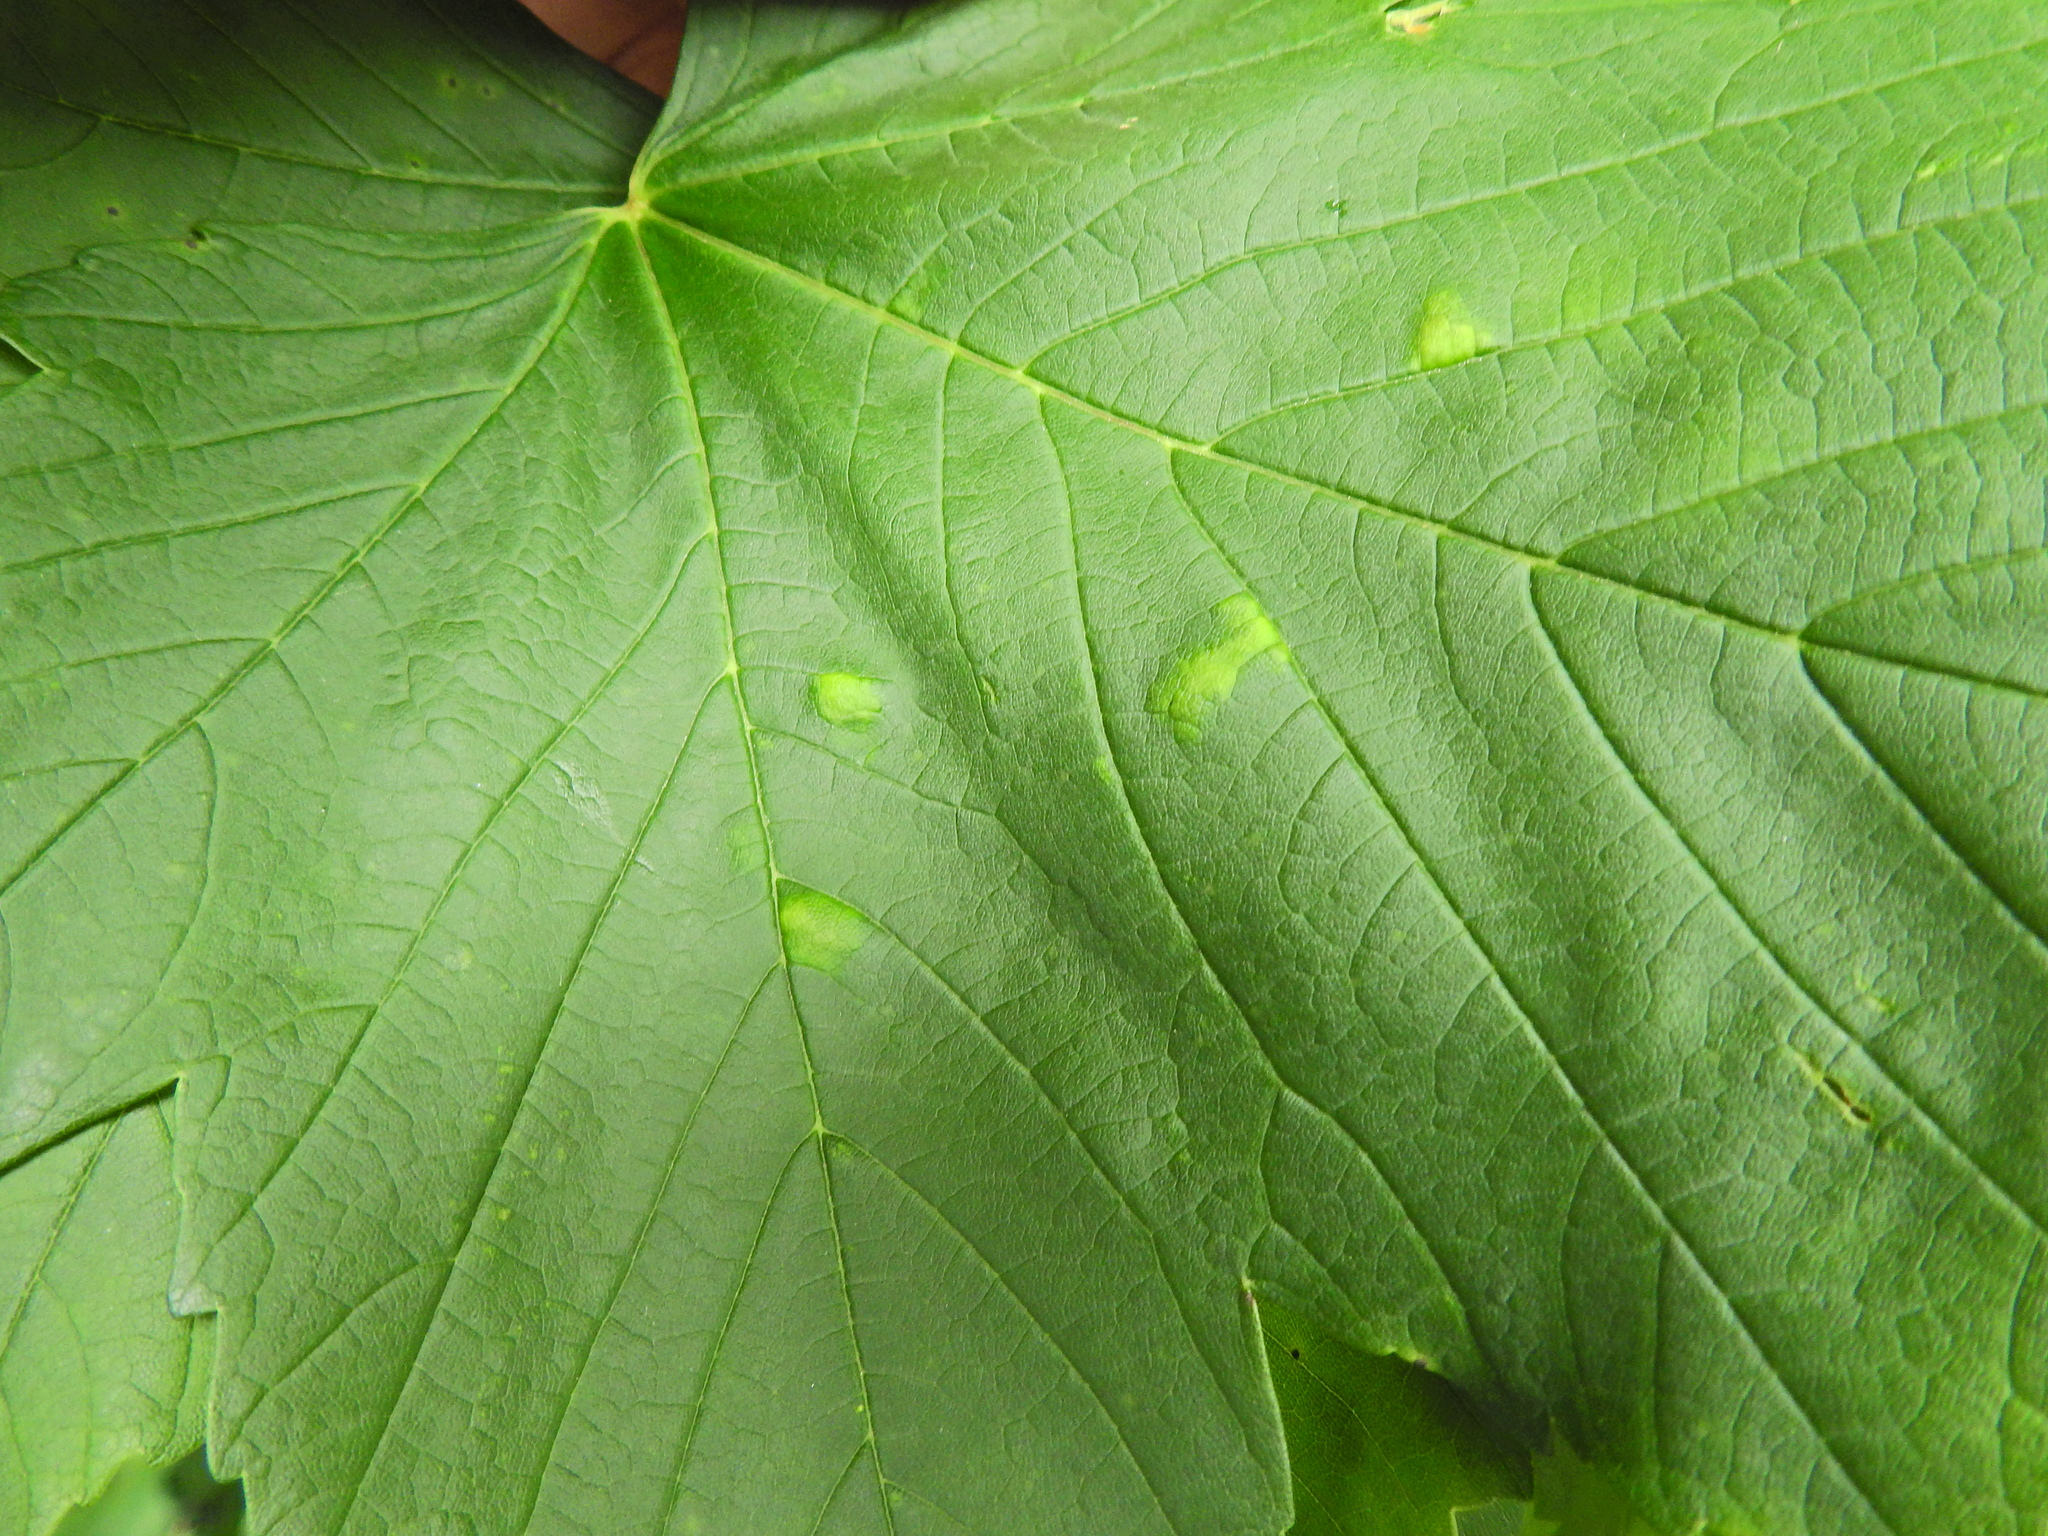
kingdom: Animalia
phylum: Arthropoda
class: Arachnida
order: Trombidiformes
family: Eriophyidae
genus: Aceria
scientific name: Aceria pseudoplatani
